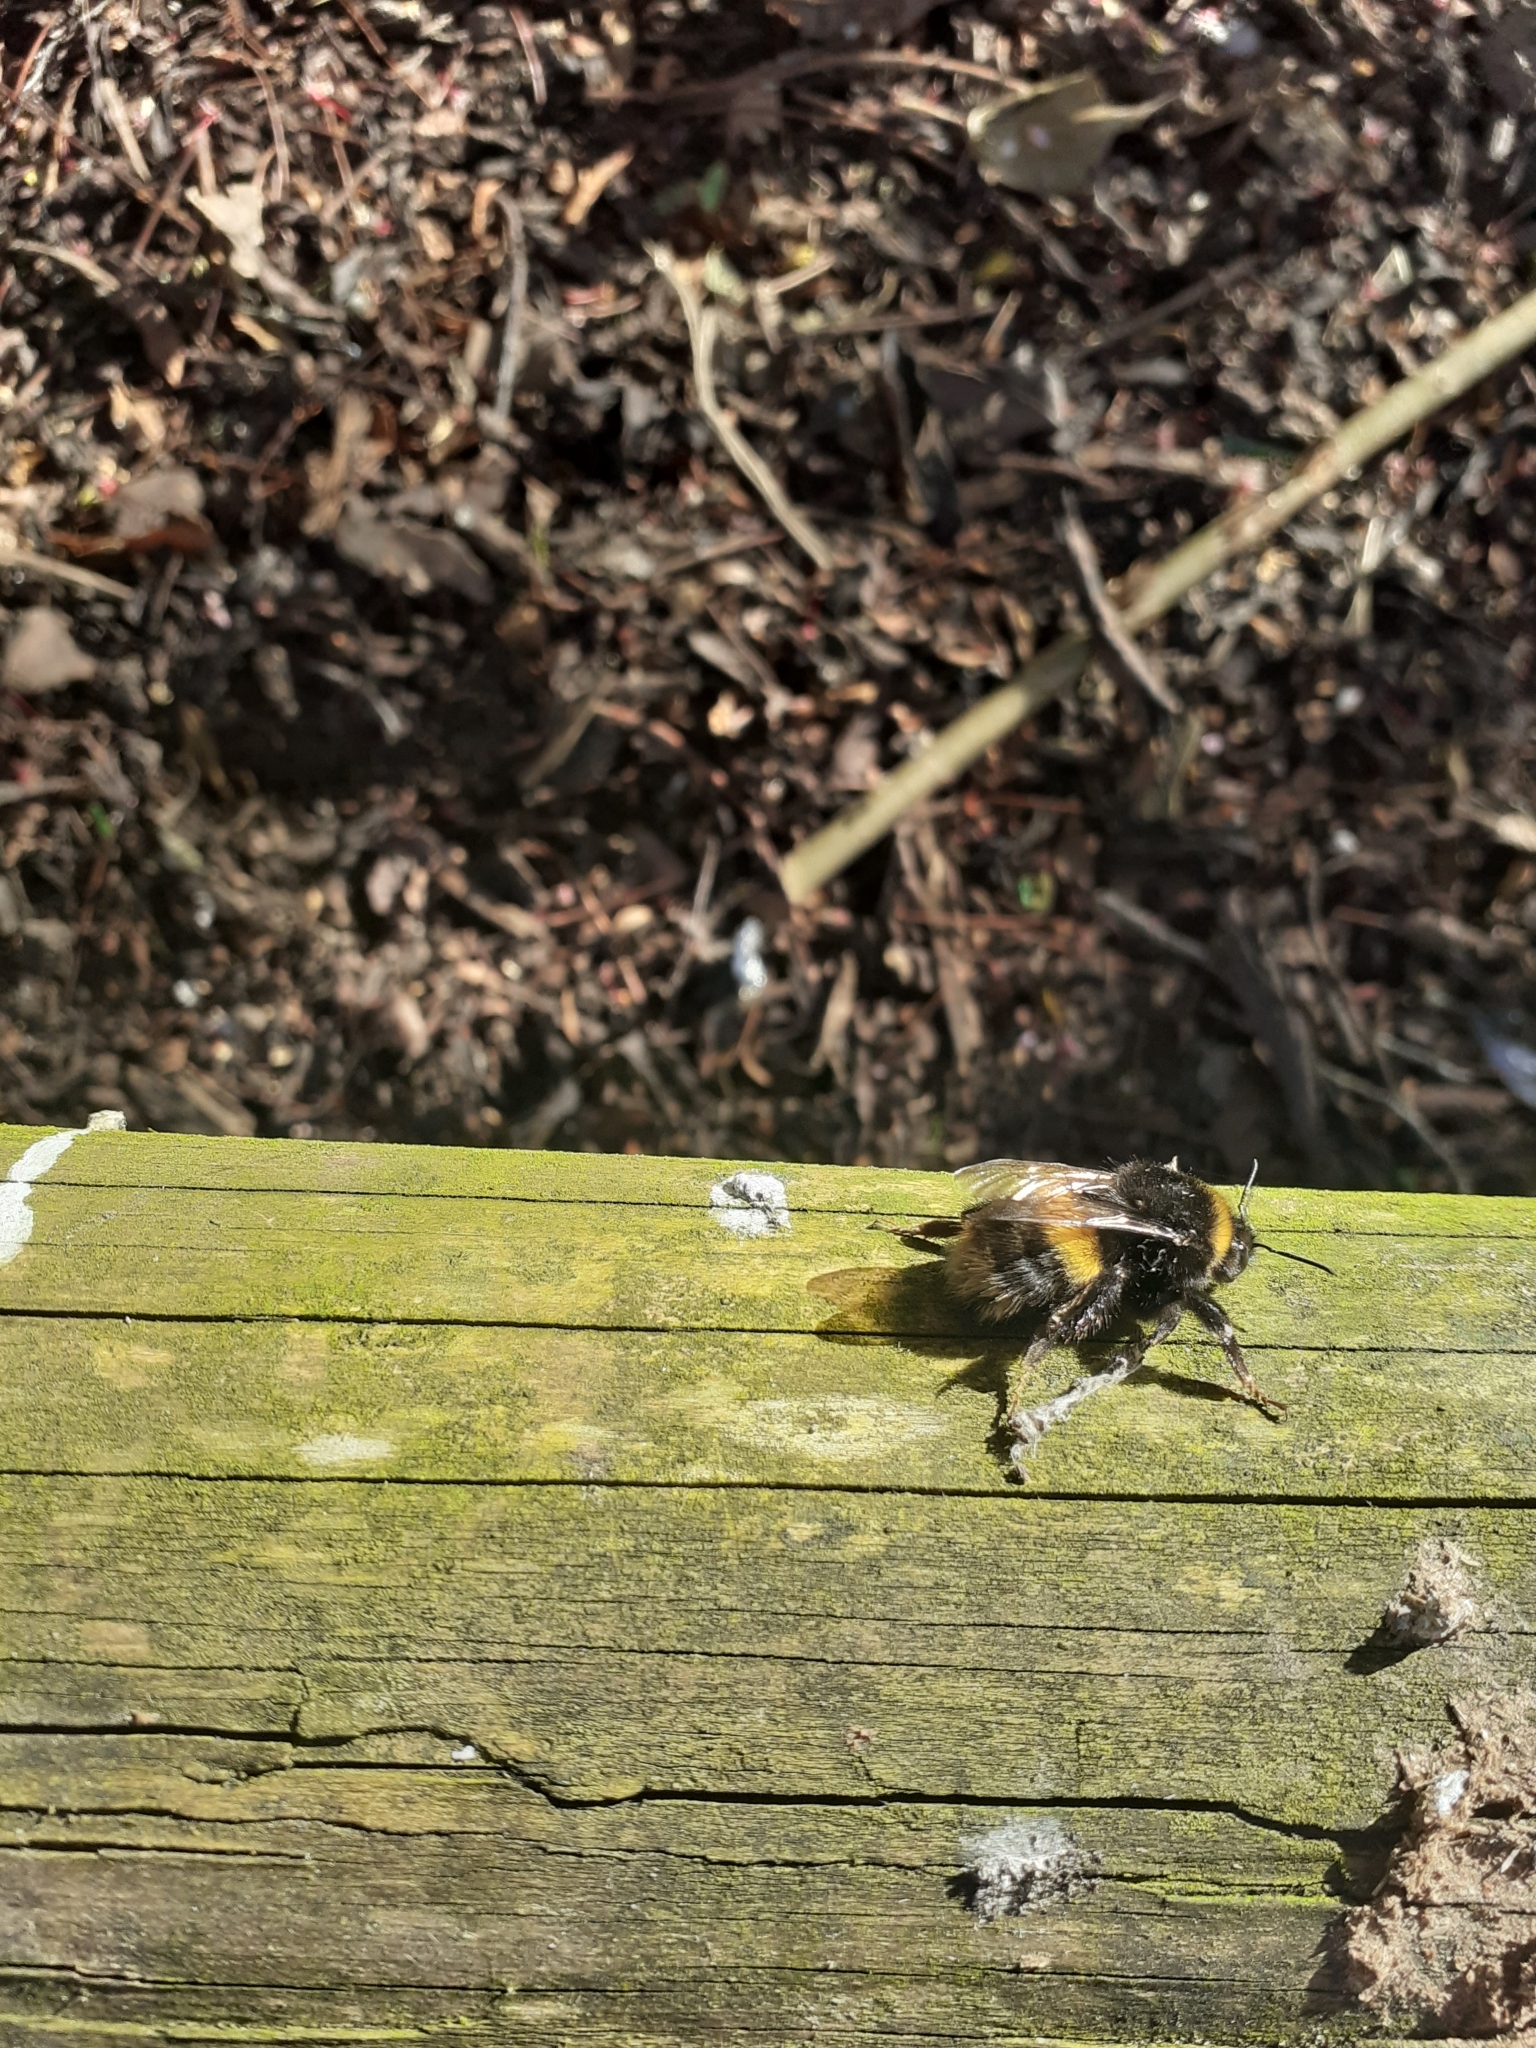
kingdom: Animalia
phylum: Arthropoda
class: Insecta
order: Hymenoptera
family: Apidae
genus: Bombus
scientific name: Bombus terrestris
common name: Buff-tailed bumblebee
